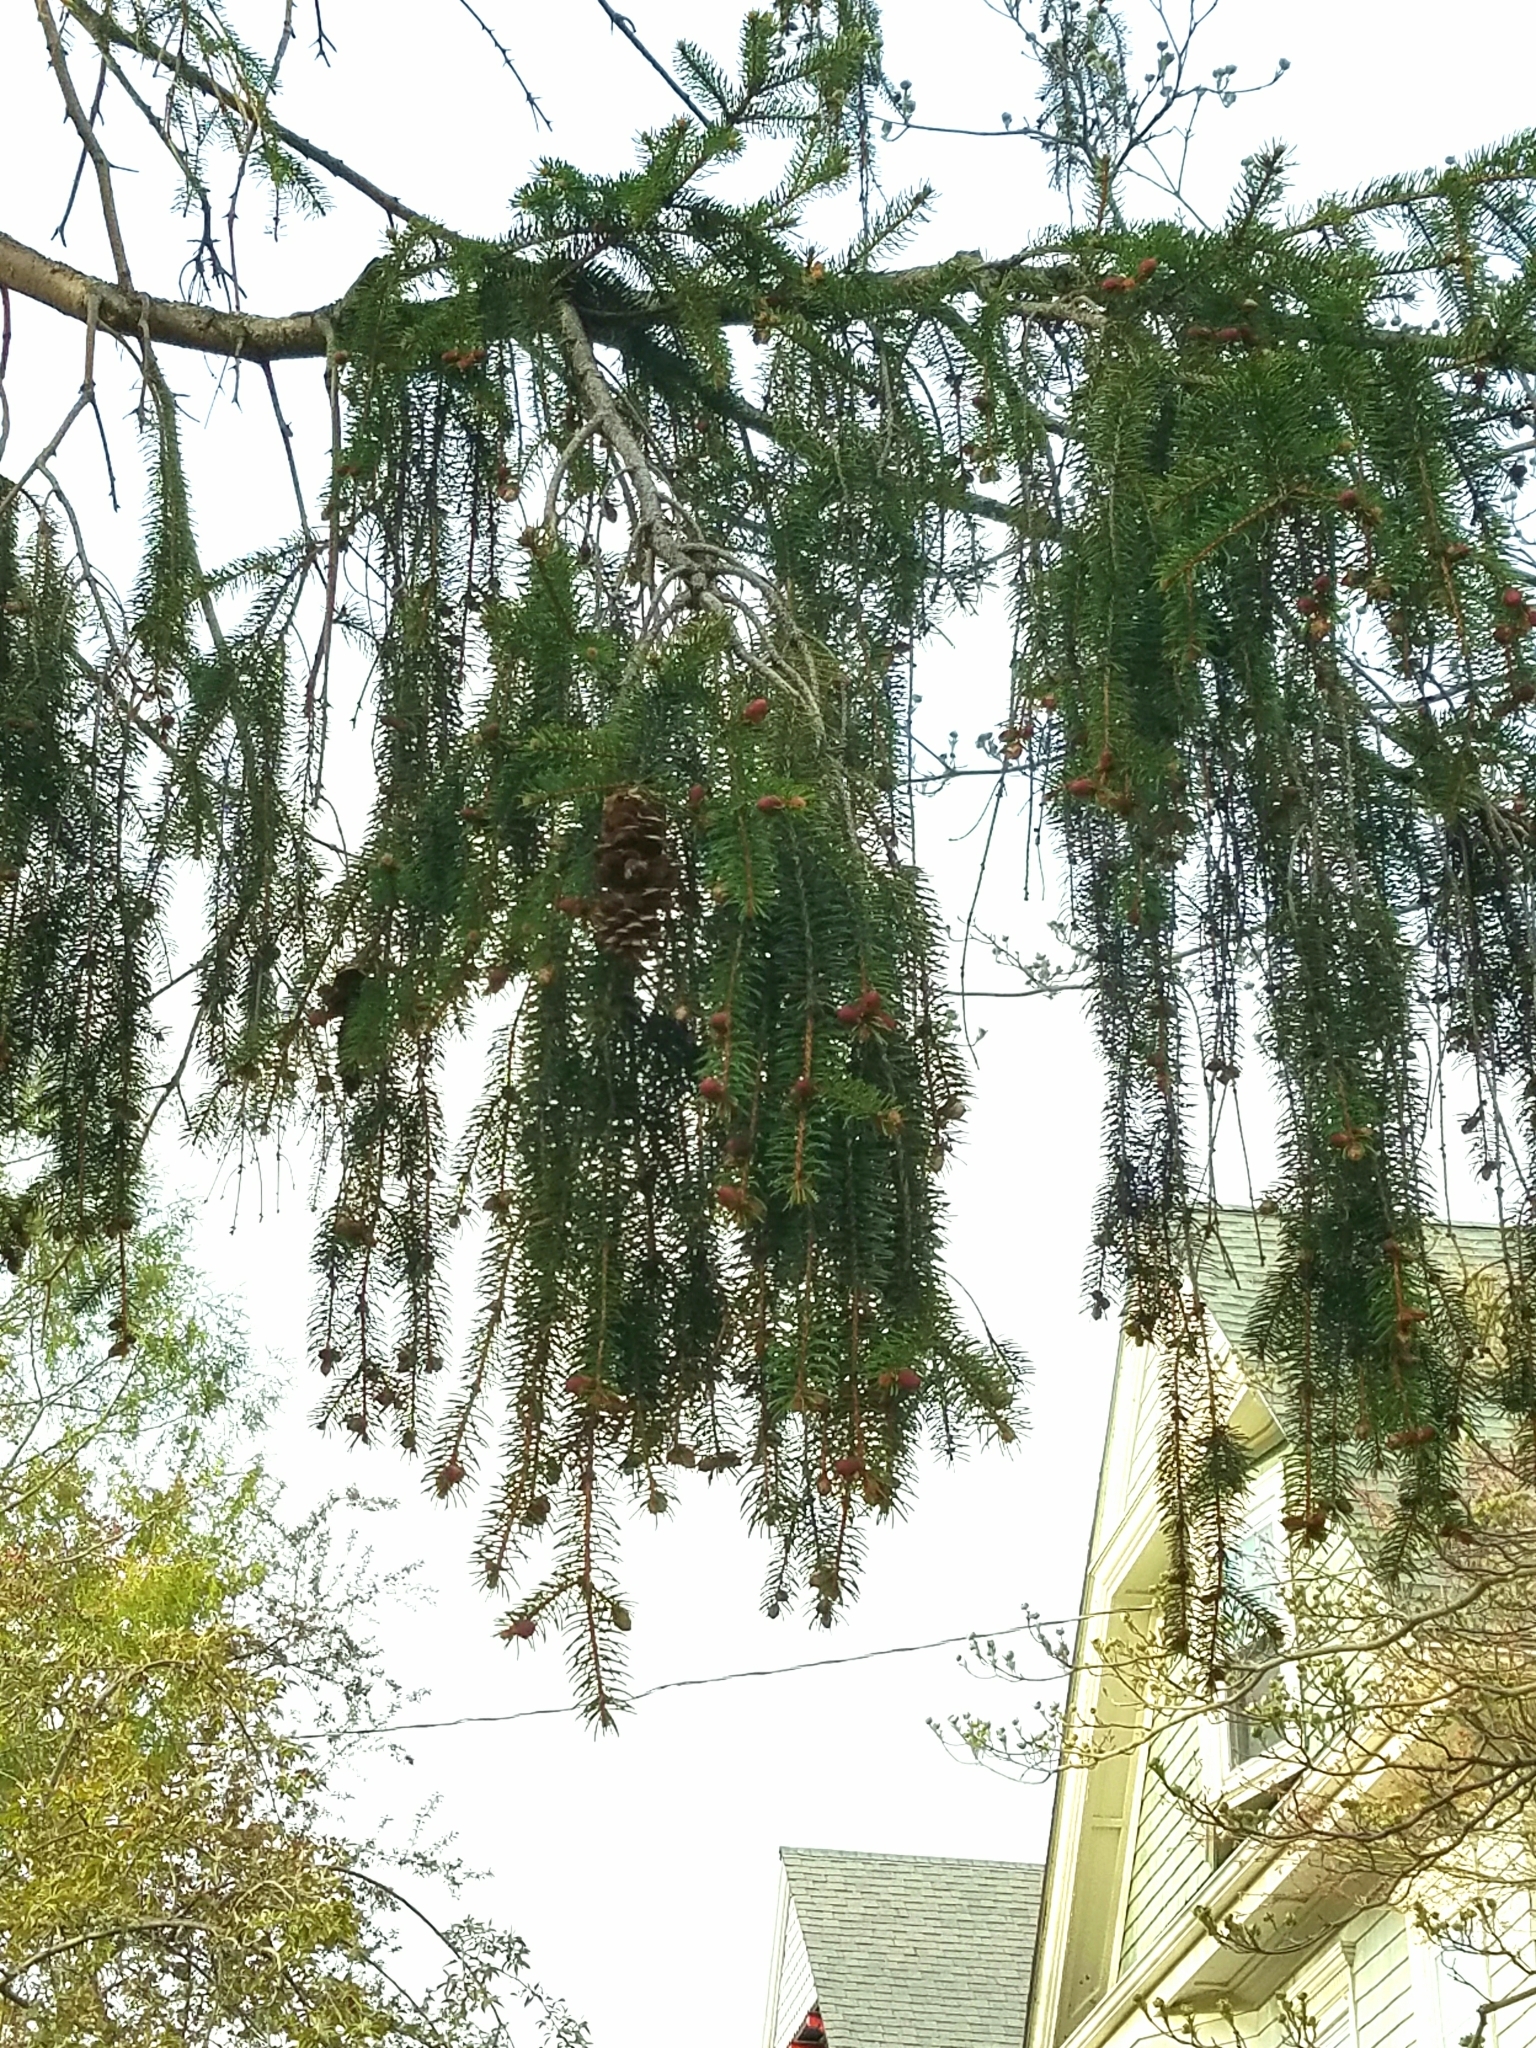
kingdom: Plantae
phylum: Tracheophyta
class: Pinopsida
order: Pinales
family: Pinaceae
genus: Picea
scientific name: Picea abies
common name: Norway spruce
